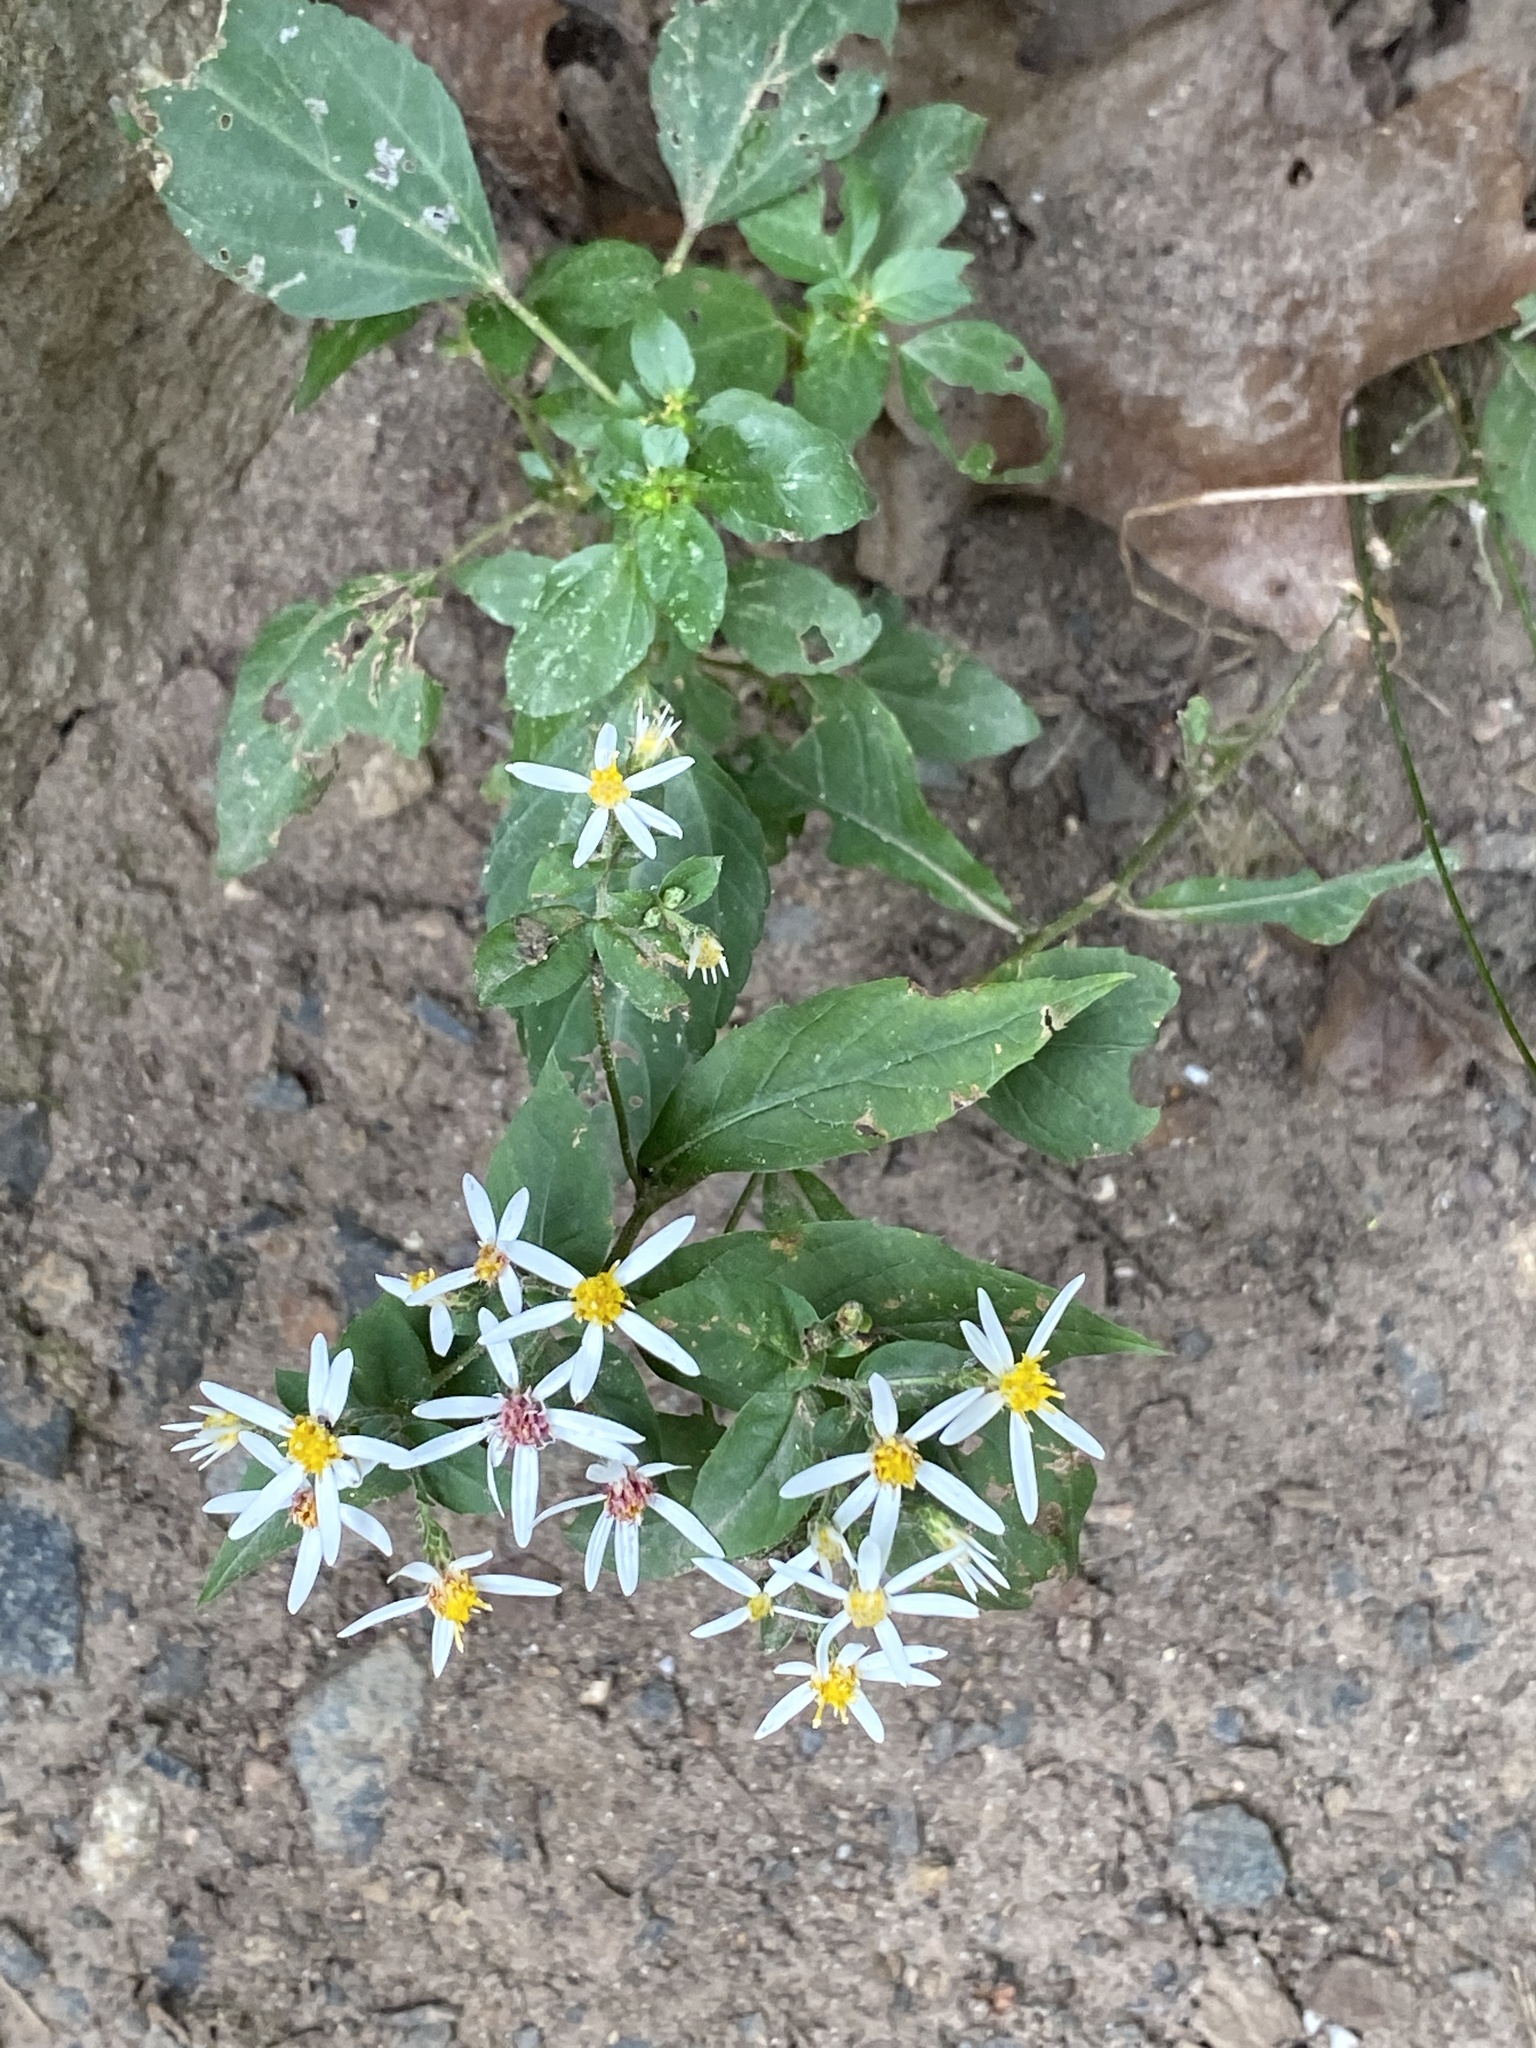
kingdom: Plantae
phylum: Tracheophyta
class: Magnoliopsida
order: Asterales
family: Asteraceae
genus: Eurybia
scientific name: Eurybia divaricata
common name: White wood aster
